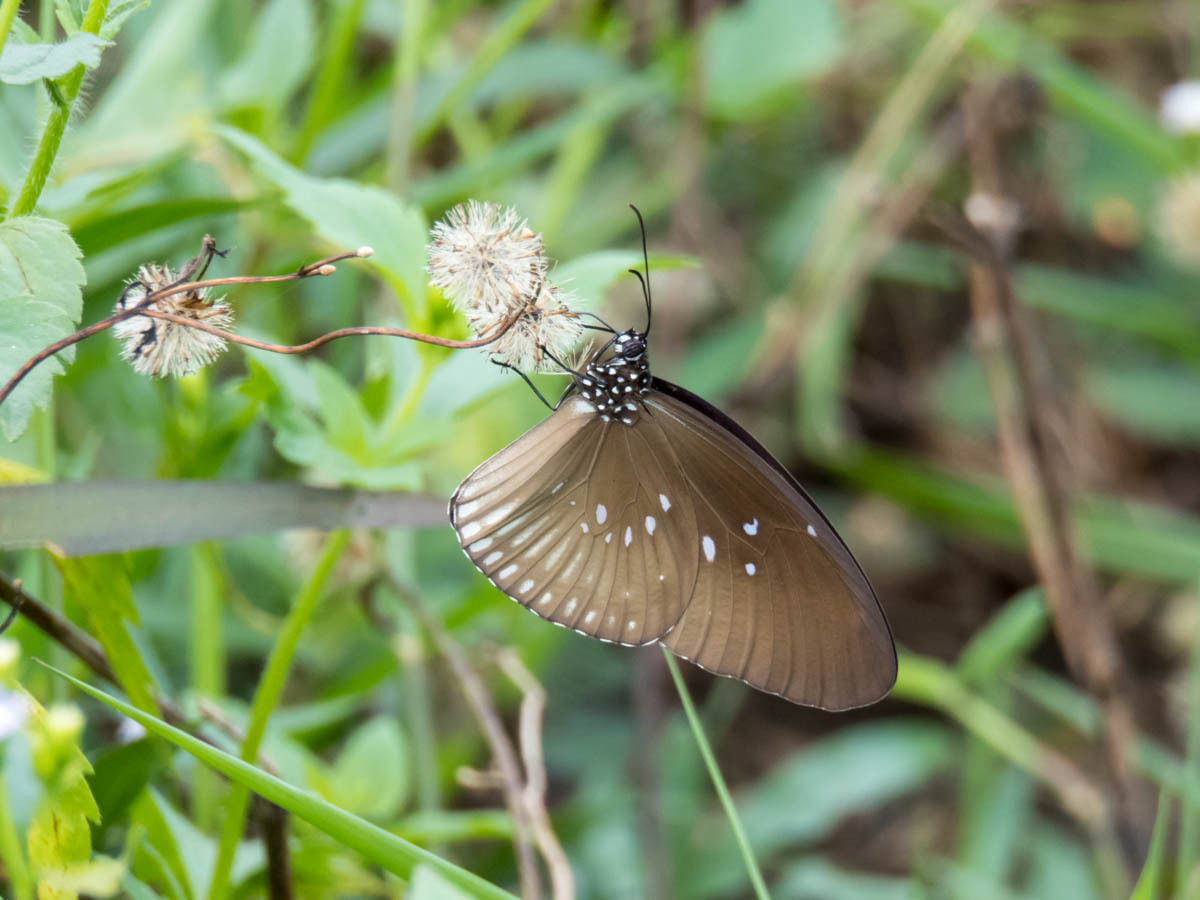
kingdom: Animalia
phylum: Arthropoda
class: Insecta
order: Lepidoptera
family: Nymphalidae
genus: Euploea
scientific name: Euploea eyndhovii
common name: Striped black crow butterfly
